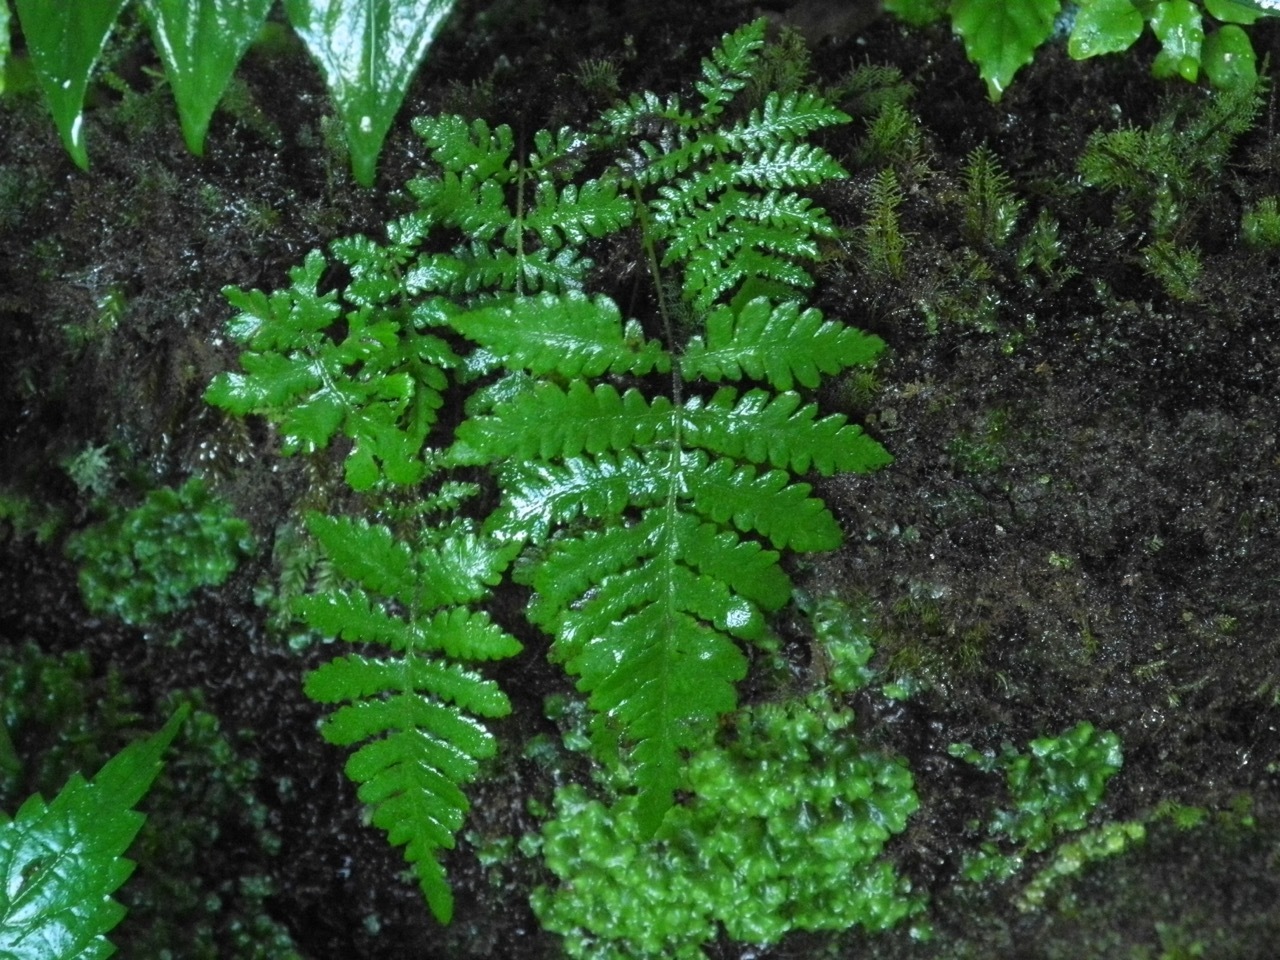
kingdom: Plantae
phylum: Tracheophyta
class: Polypodiopsida
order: Polypodiales
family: Thelypteridaceae
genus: Phegopteris
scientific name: Phegopteris connectilis
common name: Beech fern
